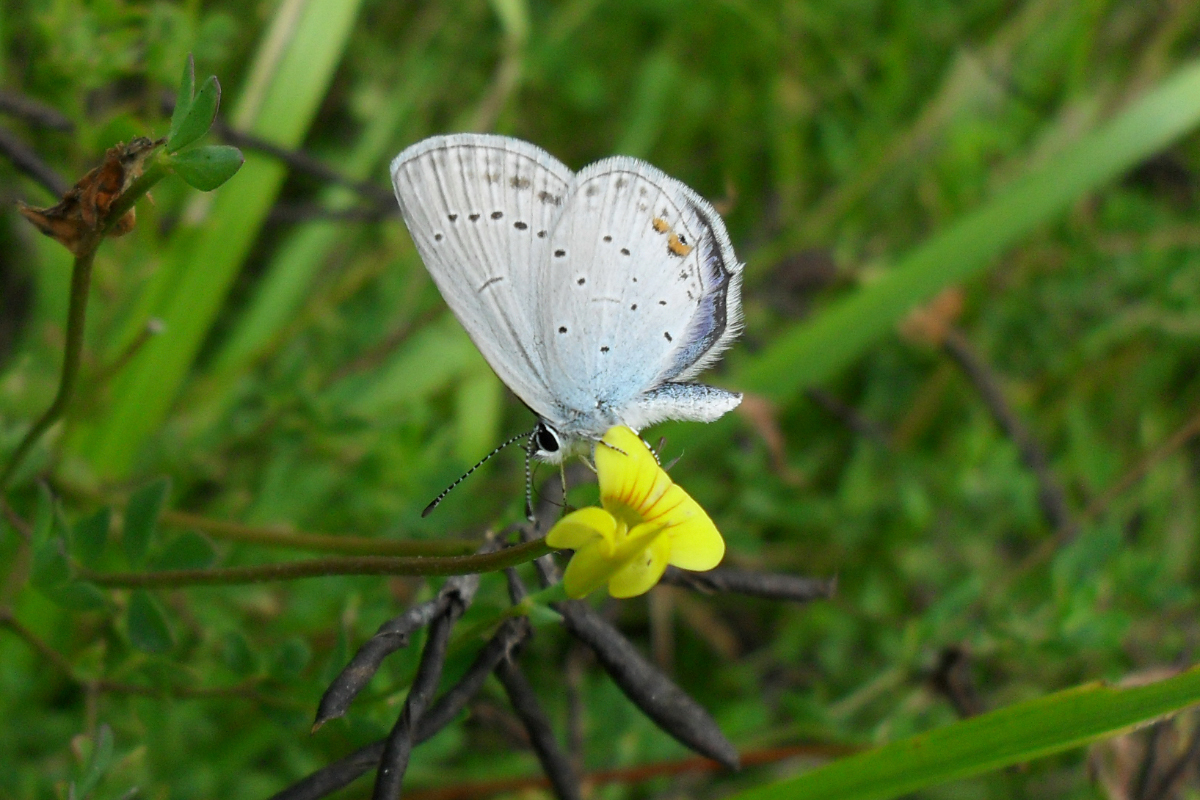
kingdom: Animalia
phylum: Arthropoda
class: Insecta
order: Lepidoptera
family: Lycaenidae
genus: Elkalyce
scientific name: Elkalyce argiades
